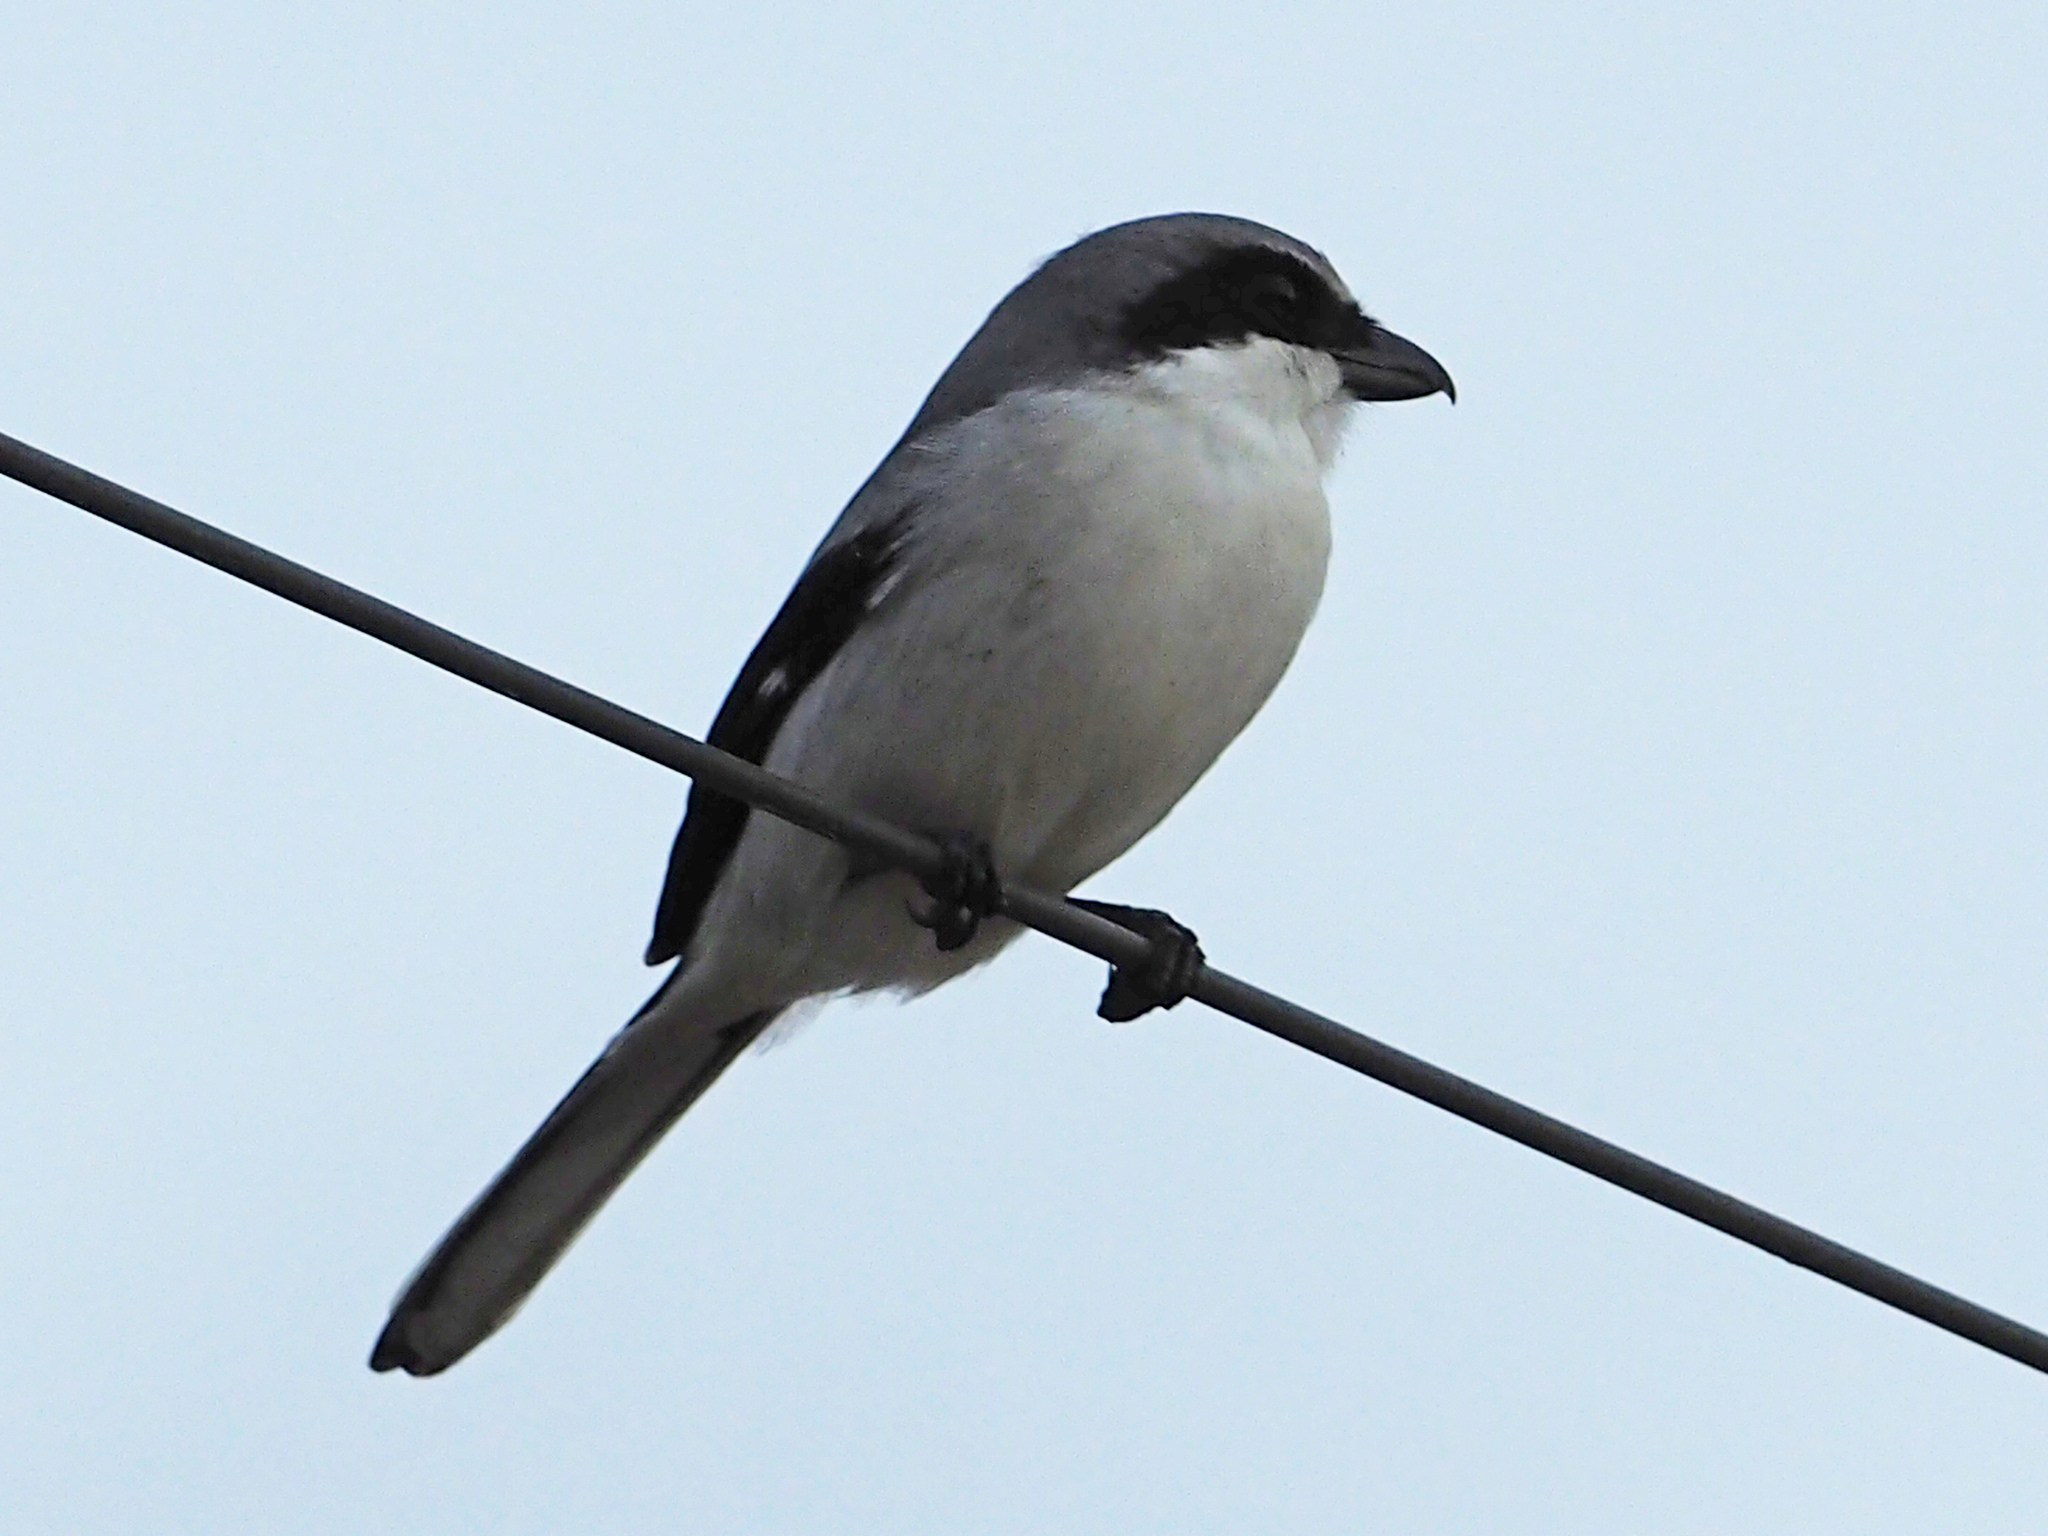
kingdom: Animalia
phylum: Chordata
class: Aves
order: Passeriformes
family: Laniidae
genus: Lanius
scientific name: Lanius ludovicianus
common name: Loggerhead shrike
